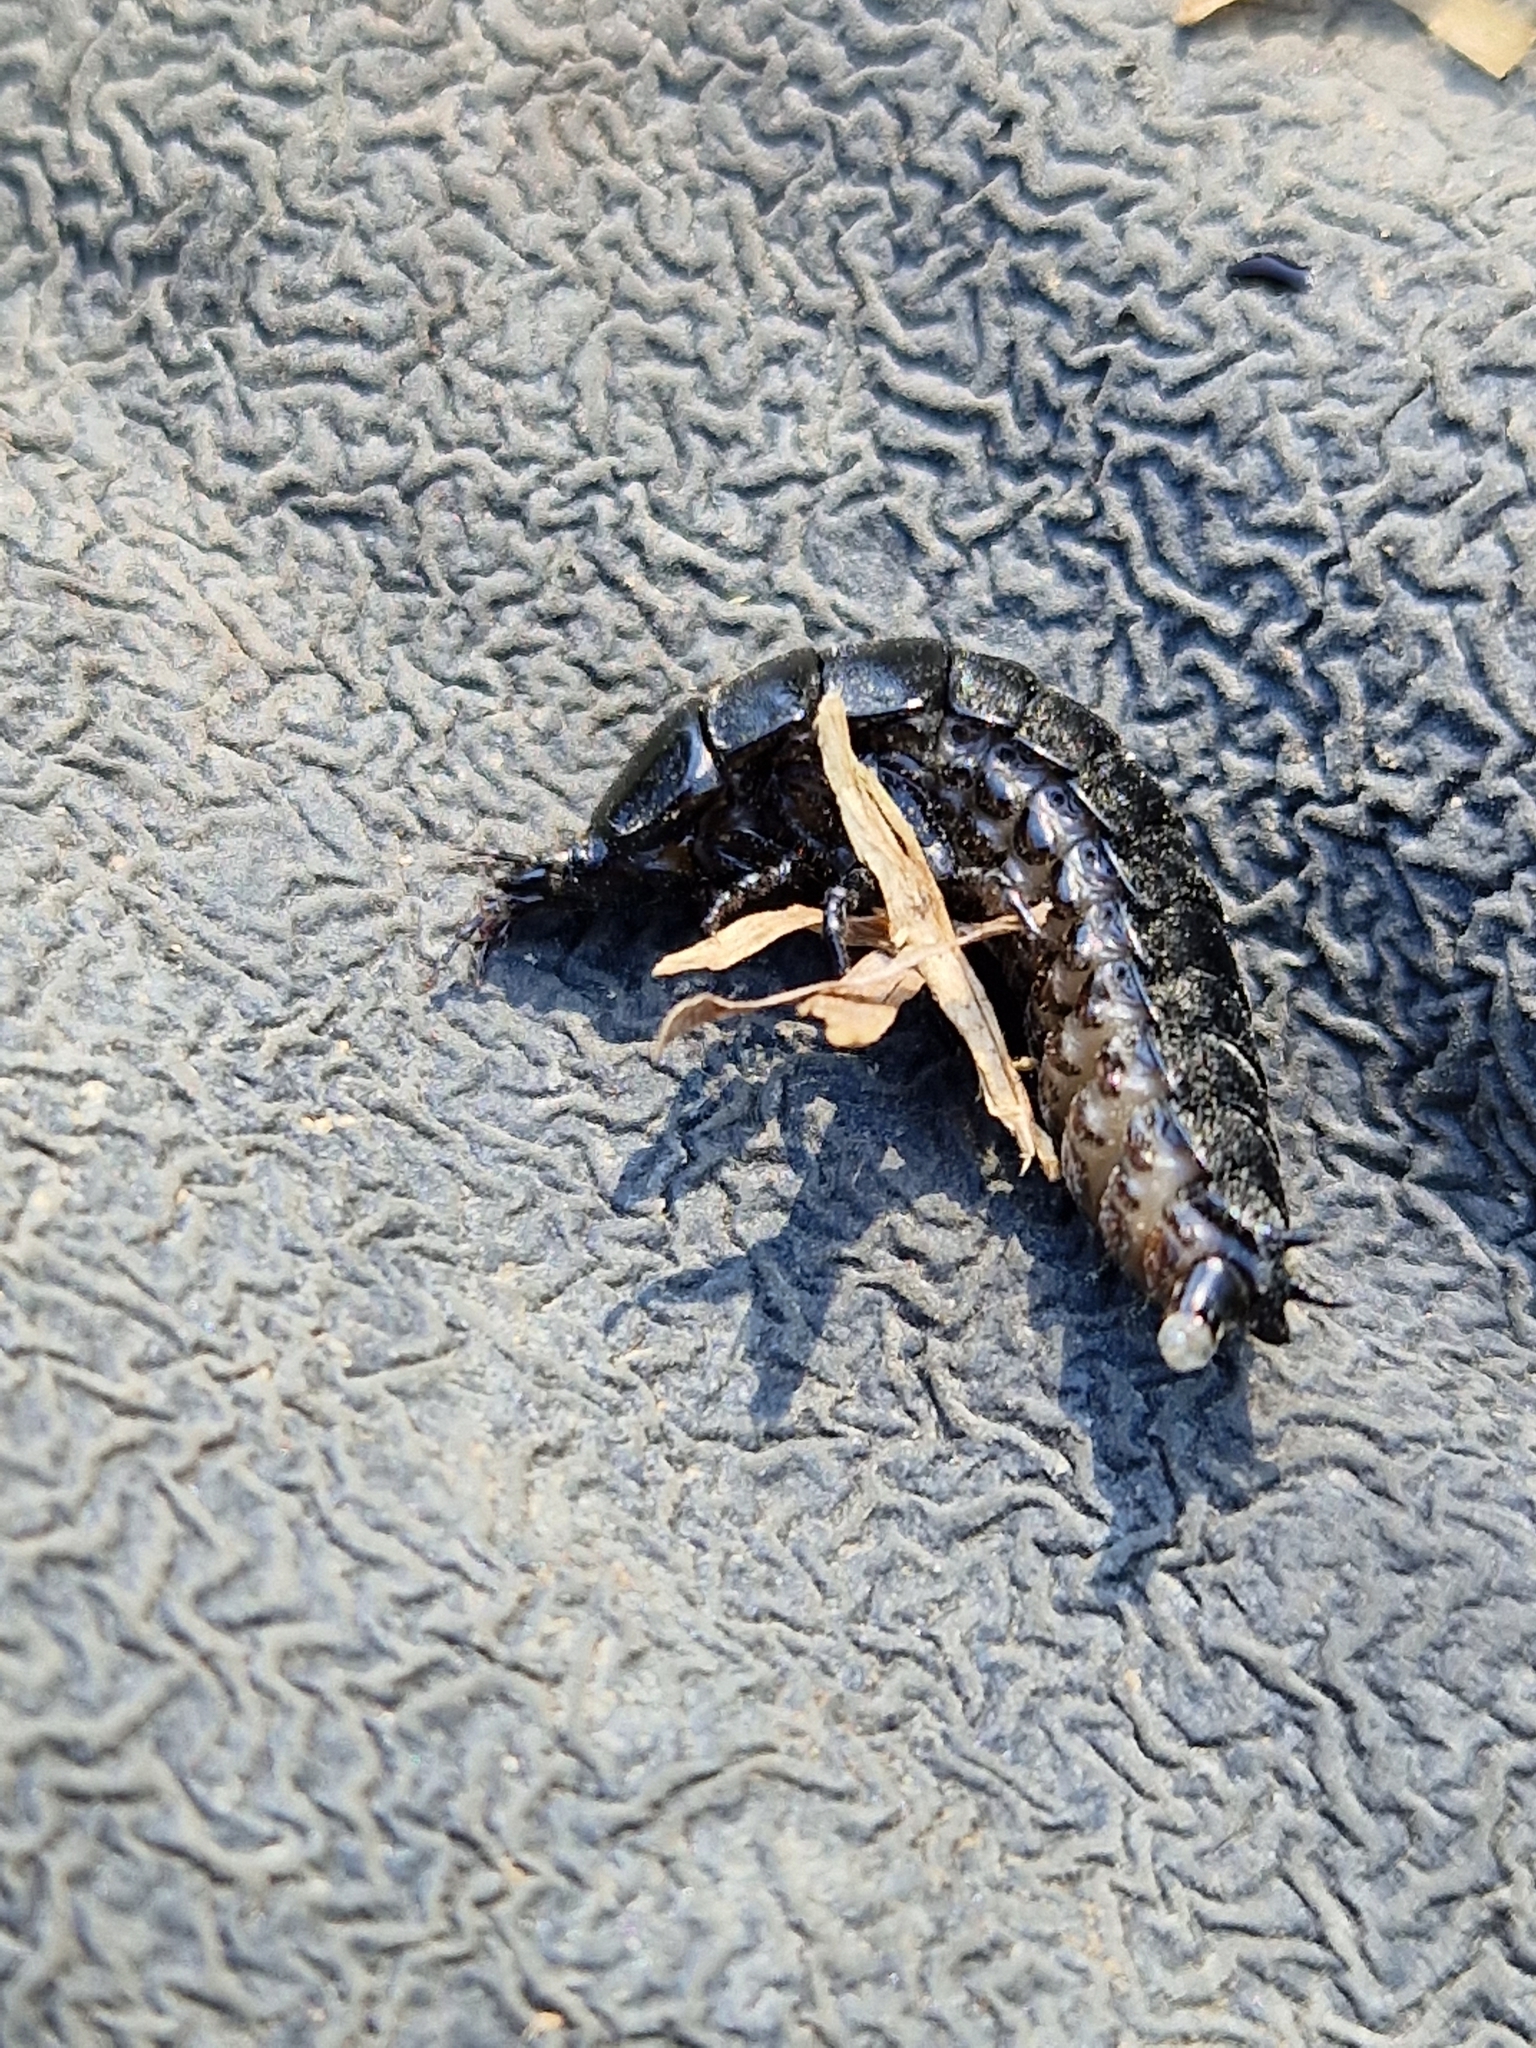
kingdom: Animalia
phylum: Arthropoda
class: Insecta
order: Coleoptera
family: Carabidae
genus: Carabus
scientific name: Carabus
